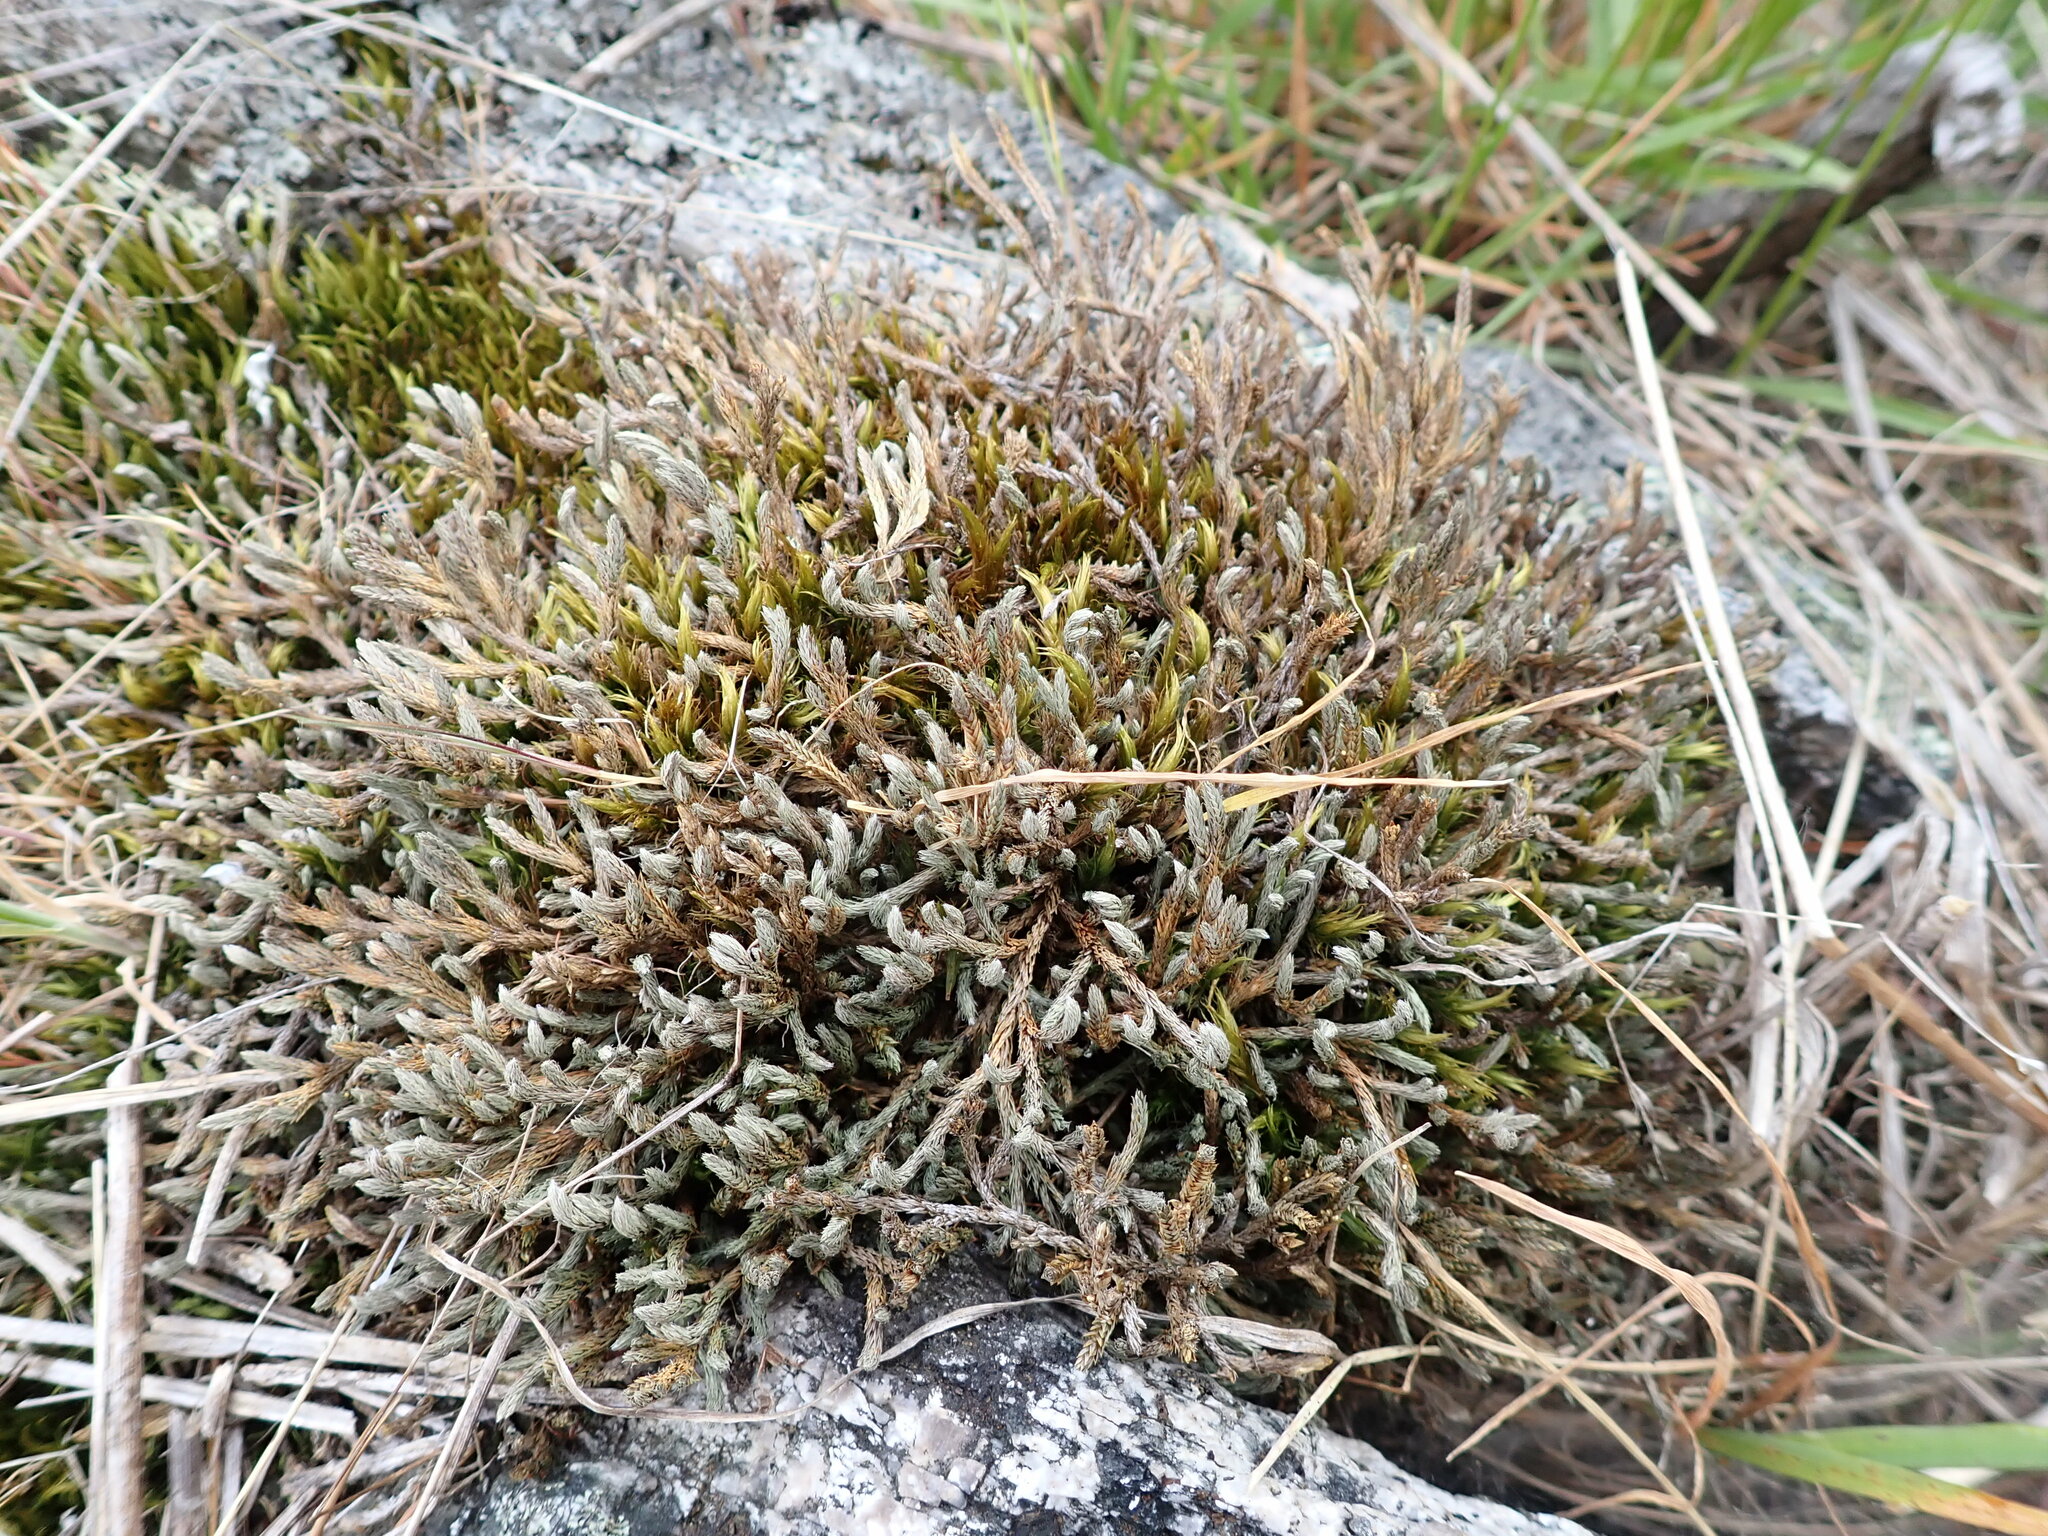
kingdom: Plantae
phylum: Tracheophyta
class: Lycopodiopsida
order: Selaginellales
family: Selaginellaceae
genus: Selaginella
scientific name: Selaginella wallacei
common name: Wallace's selaginella
